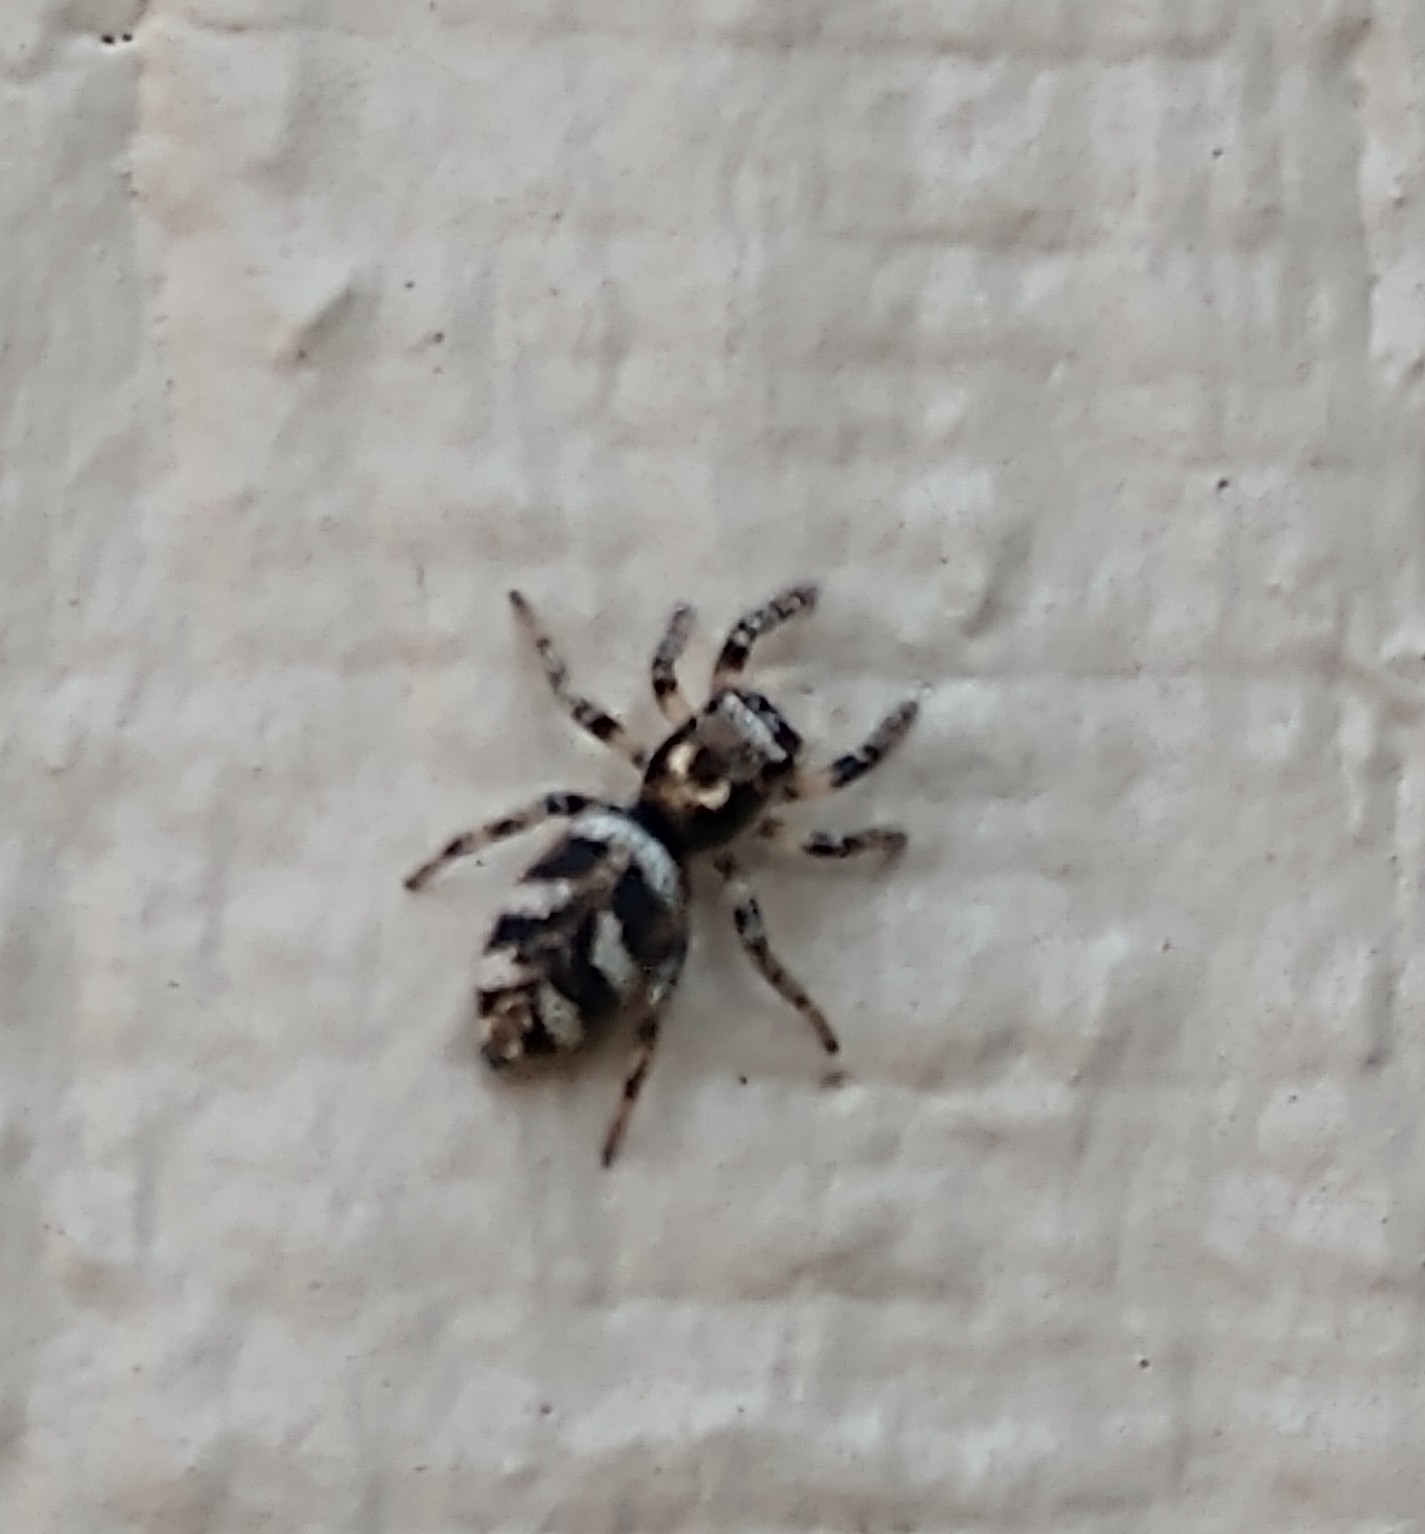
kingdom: Animalia
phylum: Arthropoda
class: Arachnida
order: Araneae
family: Salticidae
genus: Salticus
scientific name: Salticus scenicus
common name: Zebra jumper
